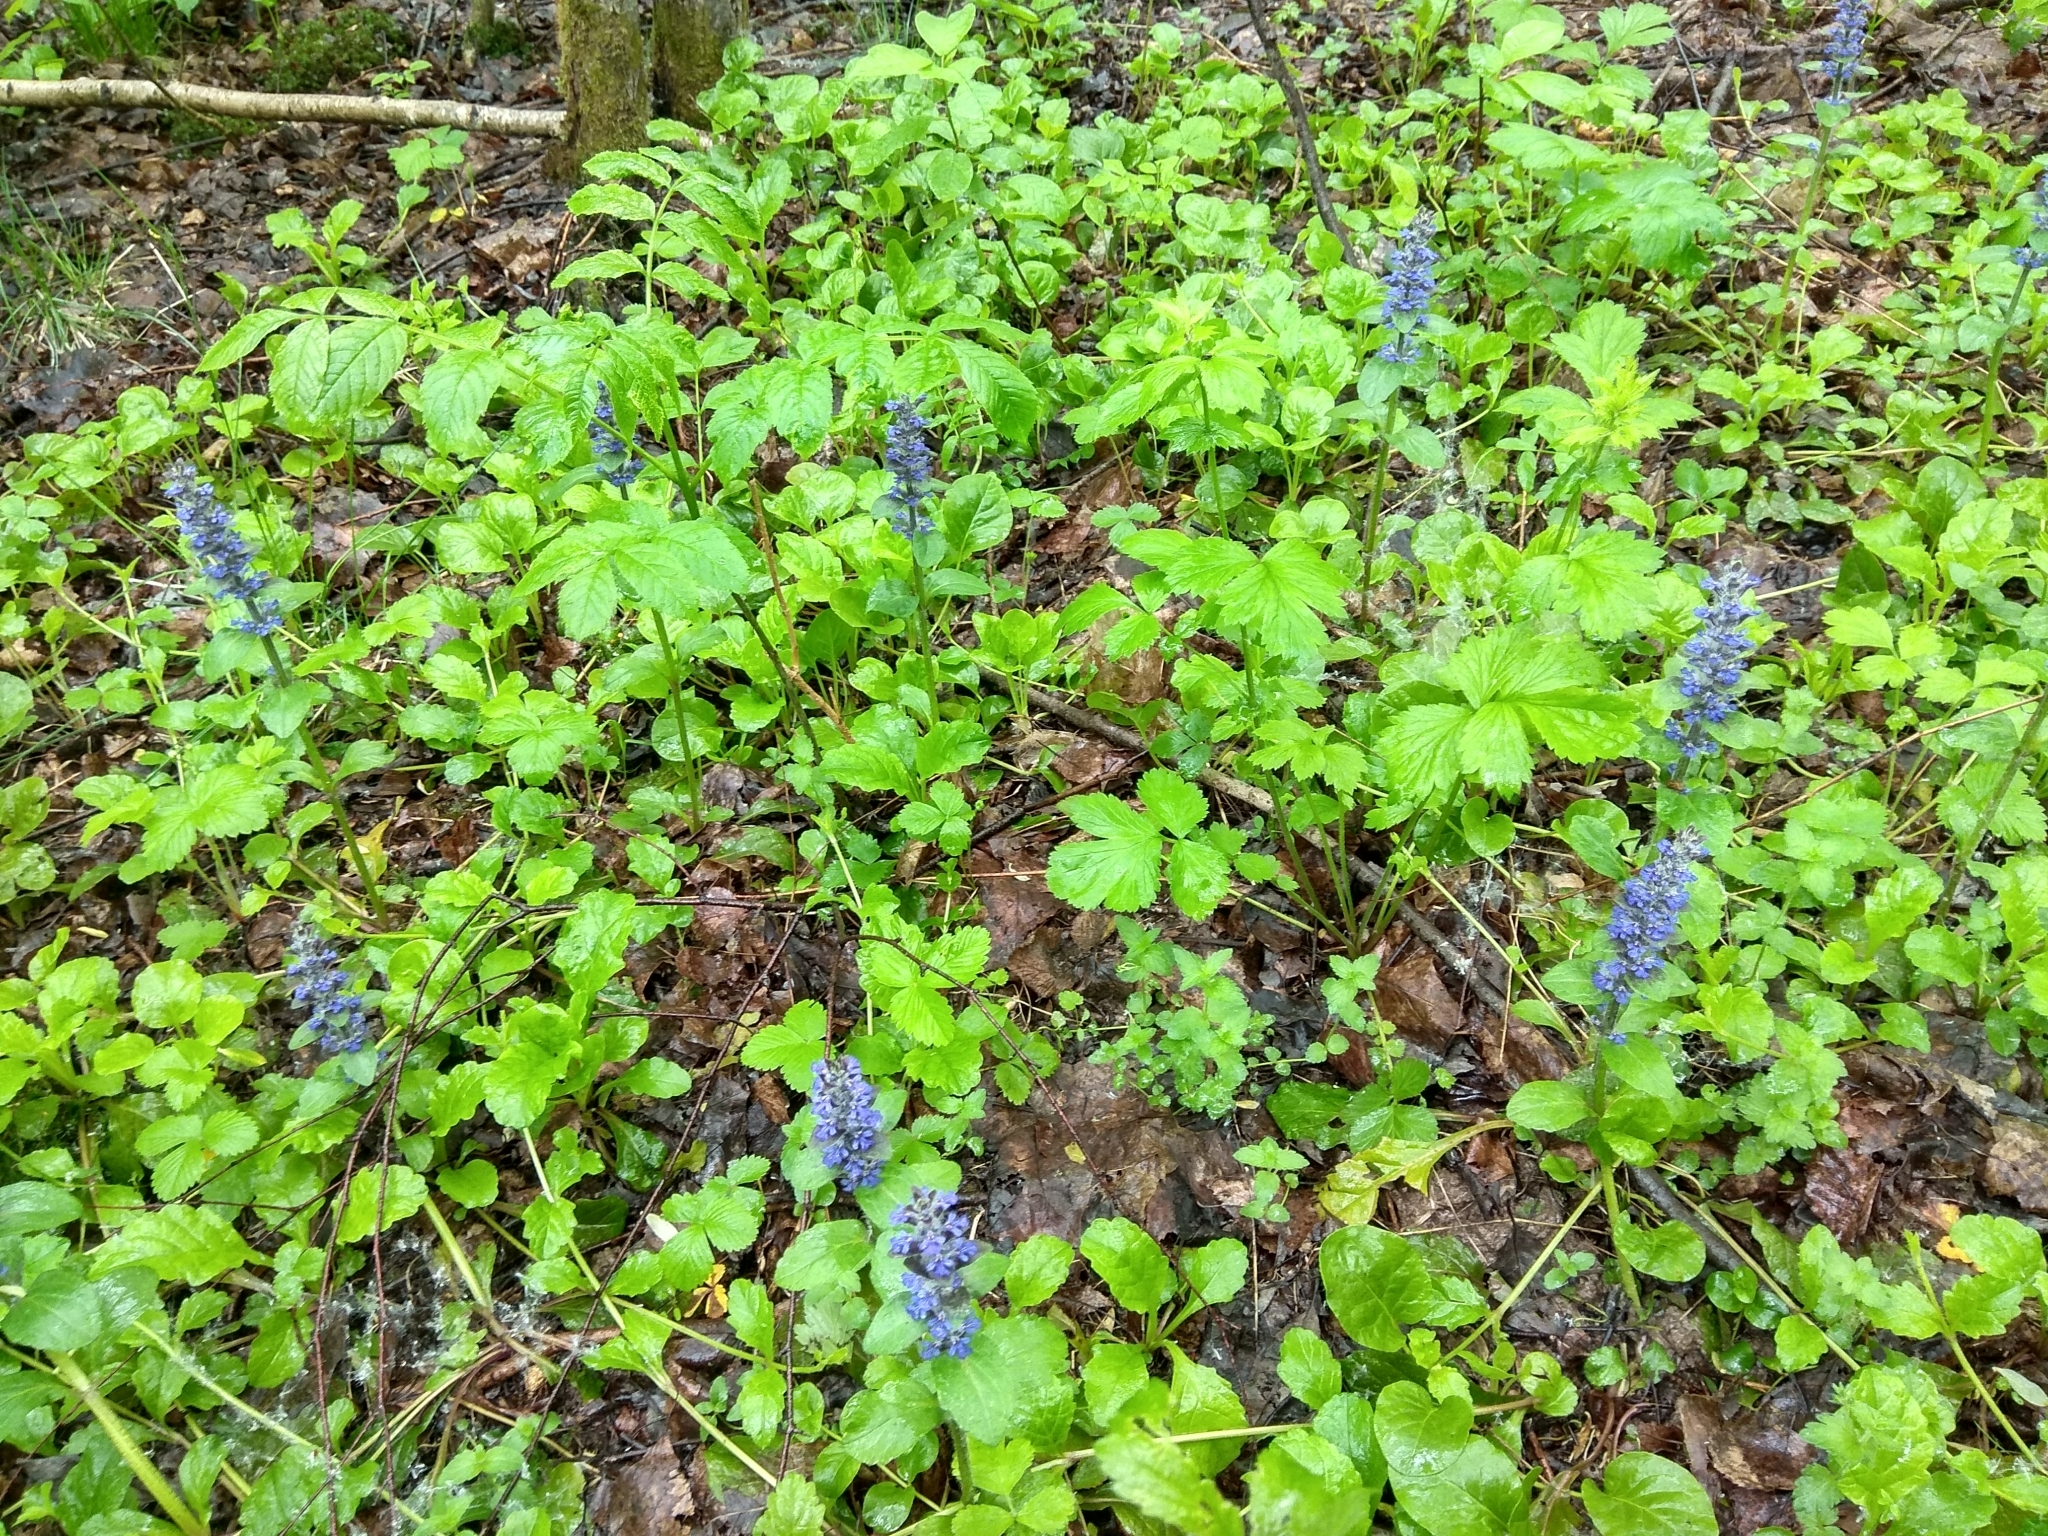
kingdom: Plantae
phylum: Tracheophyta
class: Magnoliopsida
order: Lamiales
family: Lamiaceae
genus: Ajuga
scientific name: Ajuga reptans
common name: Bugle
